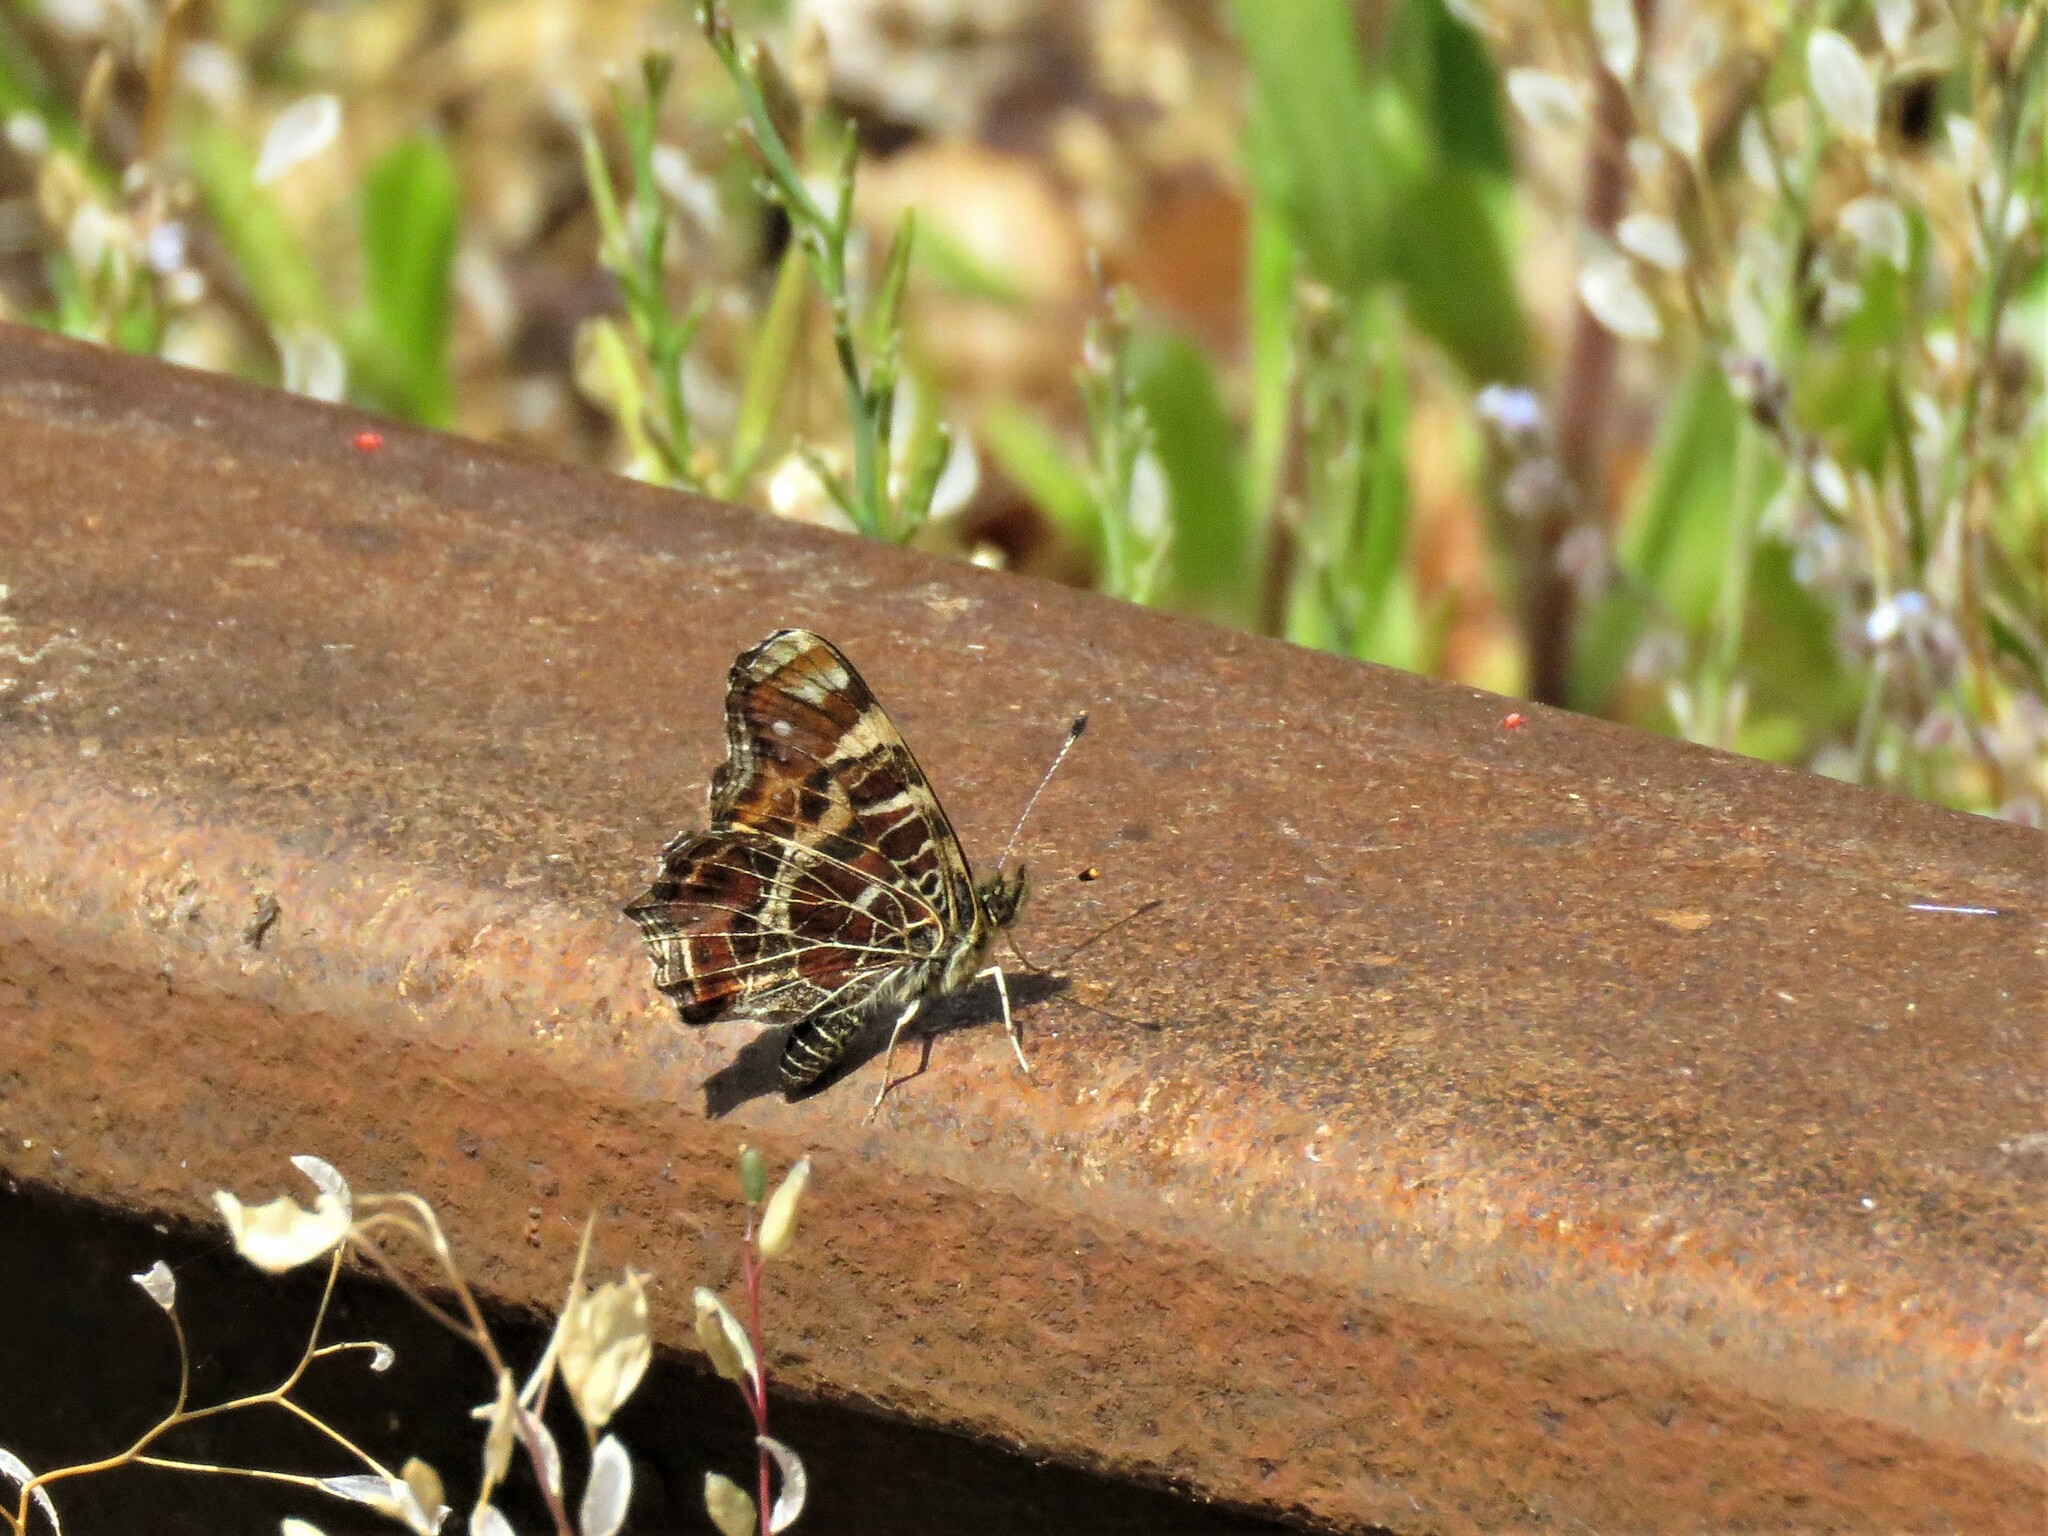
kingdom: Animalia
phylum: Arthropoda
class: Insecta
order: Lepidoptera
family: Nymphalidae
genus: Araschnia
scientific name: Araschnia levana
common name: Map butterfly
